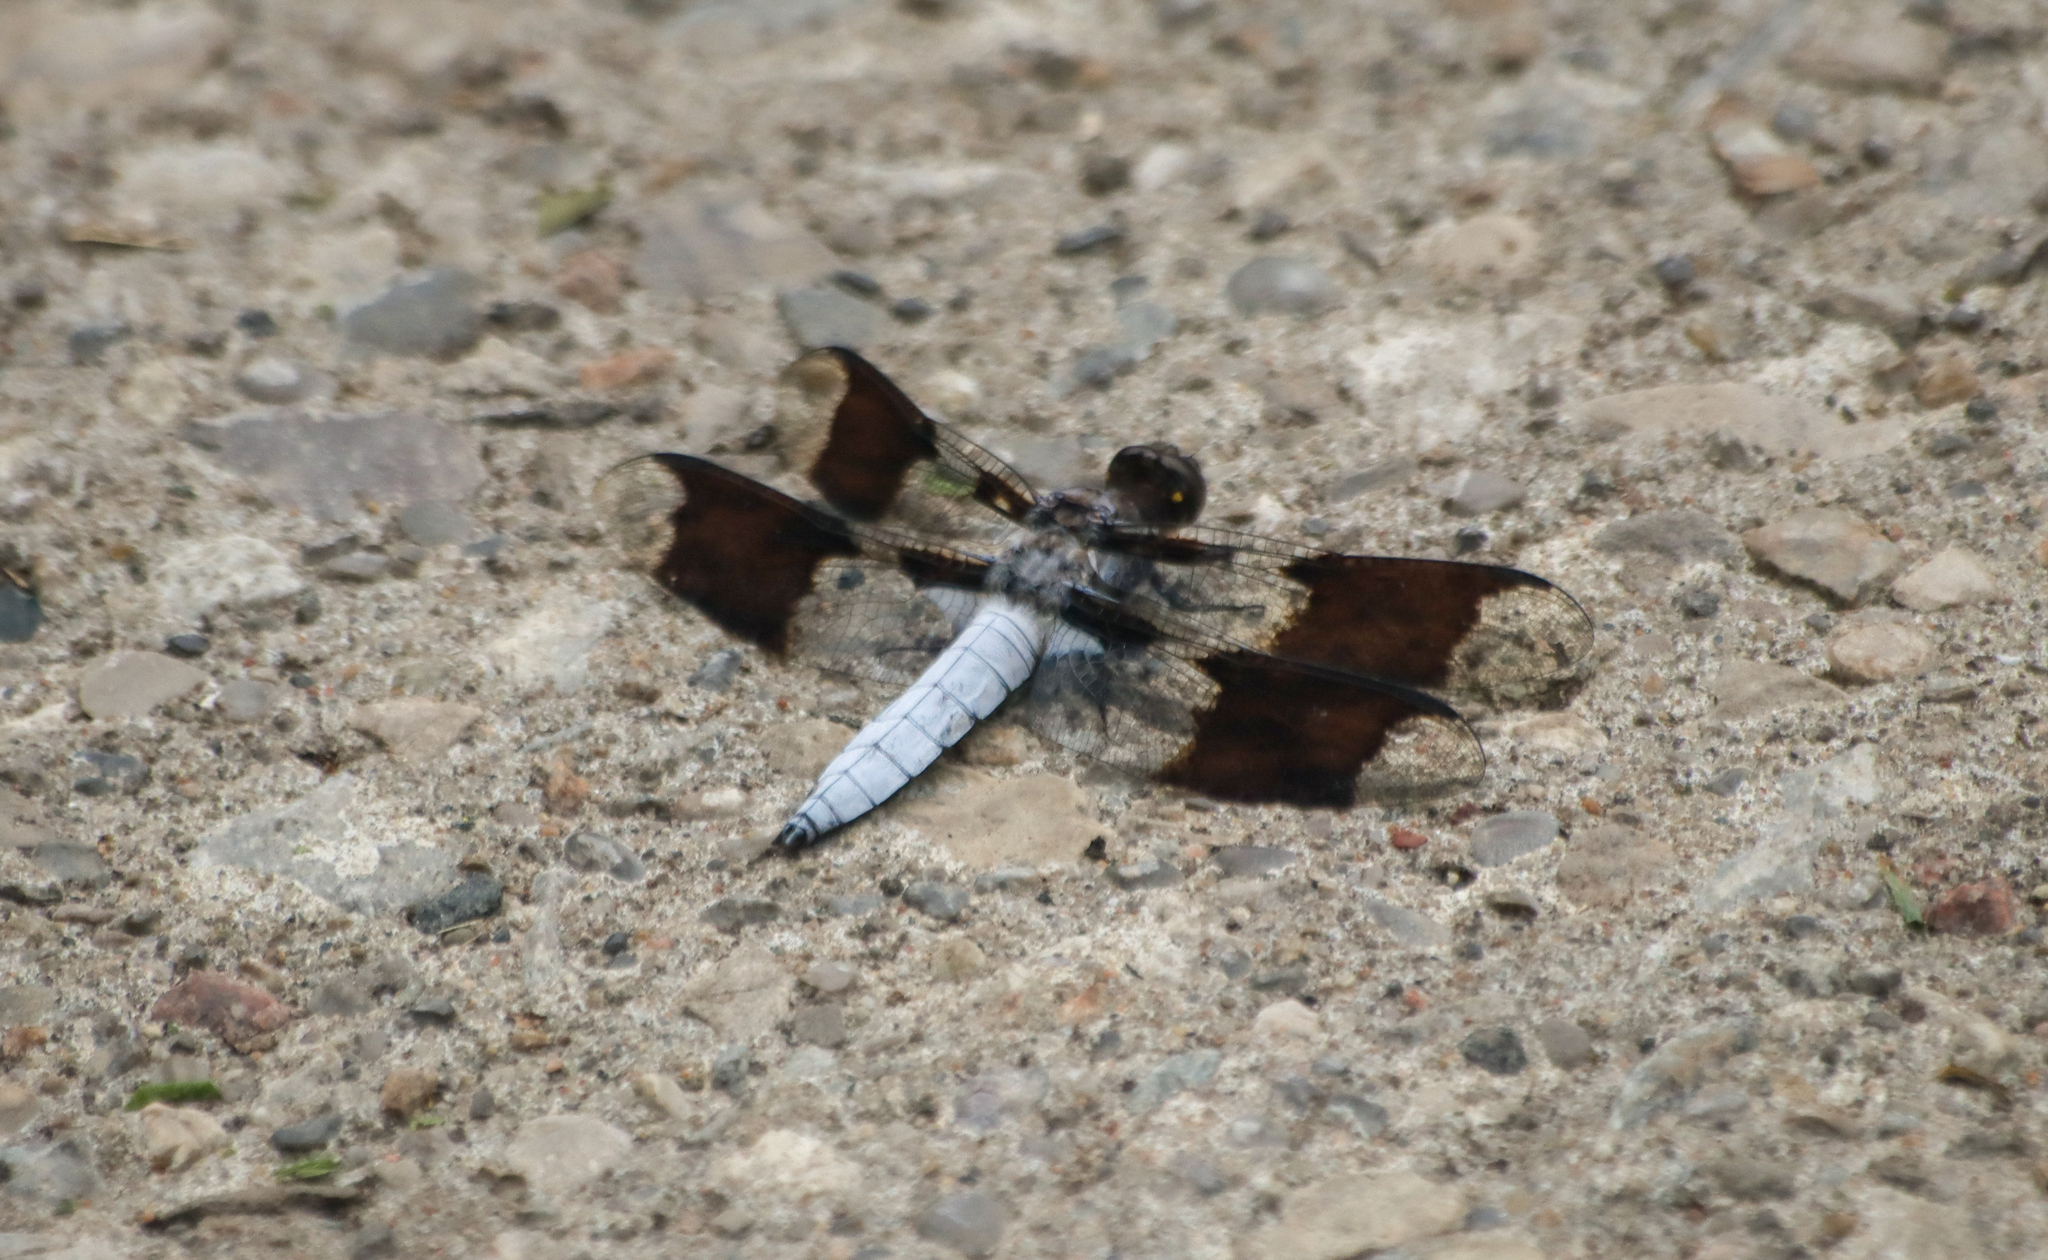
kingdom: Animalia
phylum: Arthropoda
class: Insecta
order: Odonata
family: Libellulidae
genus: Plathemis
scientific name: Plathemis lydia
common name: Common whitetail
